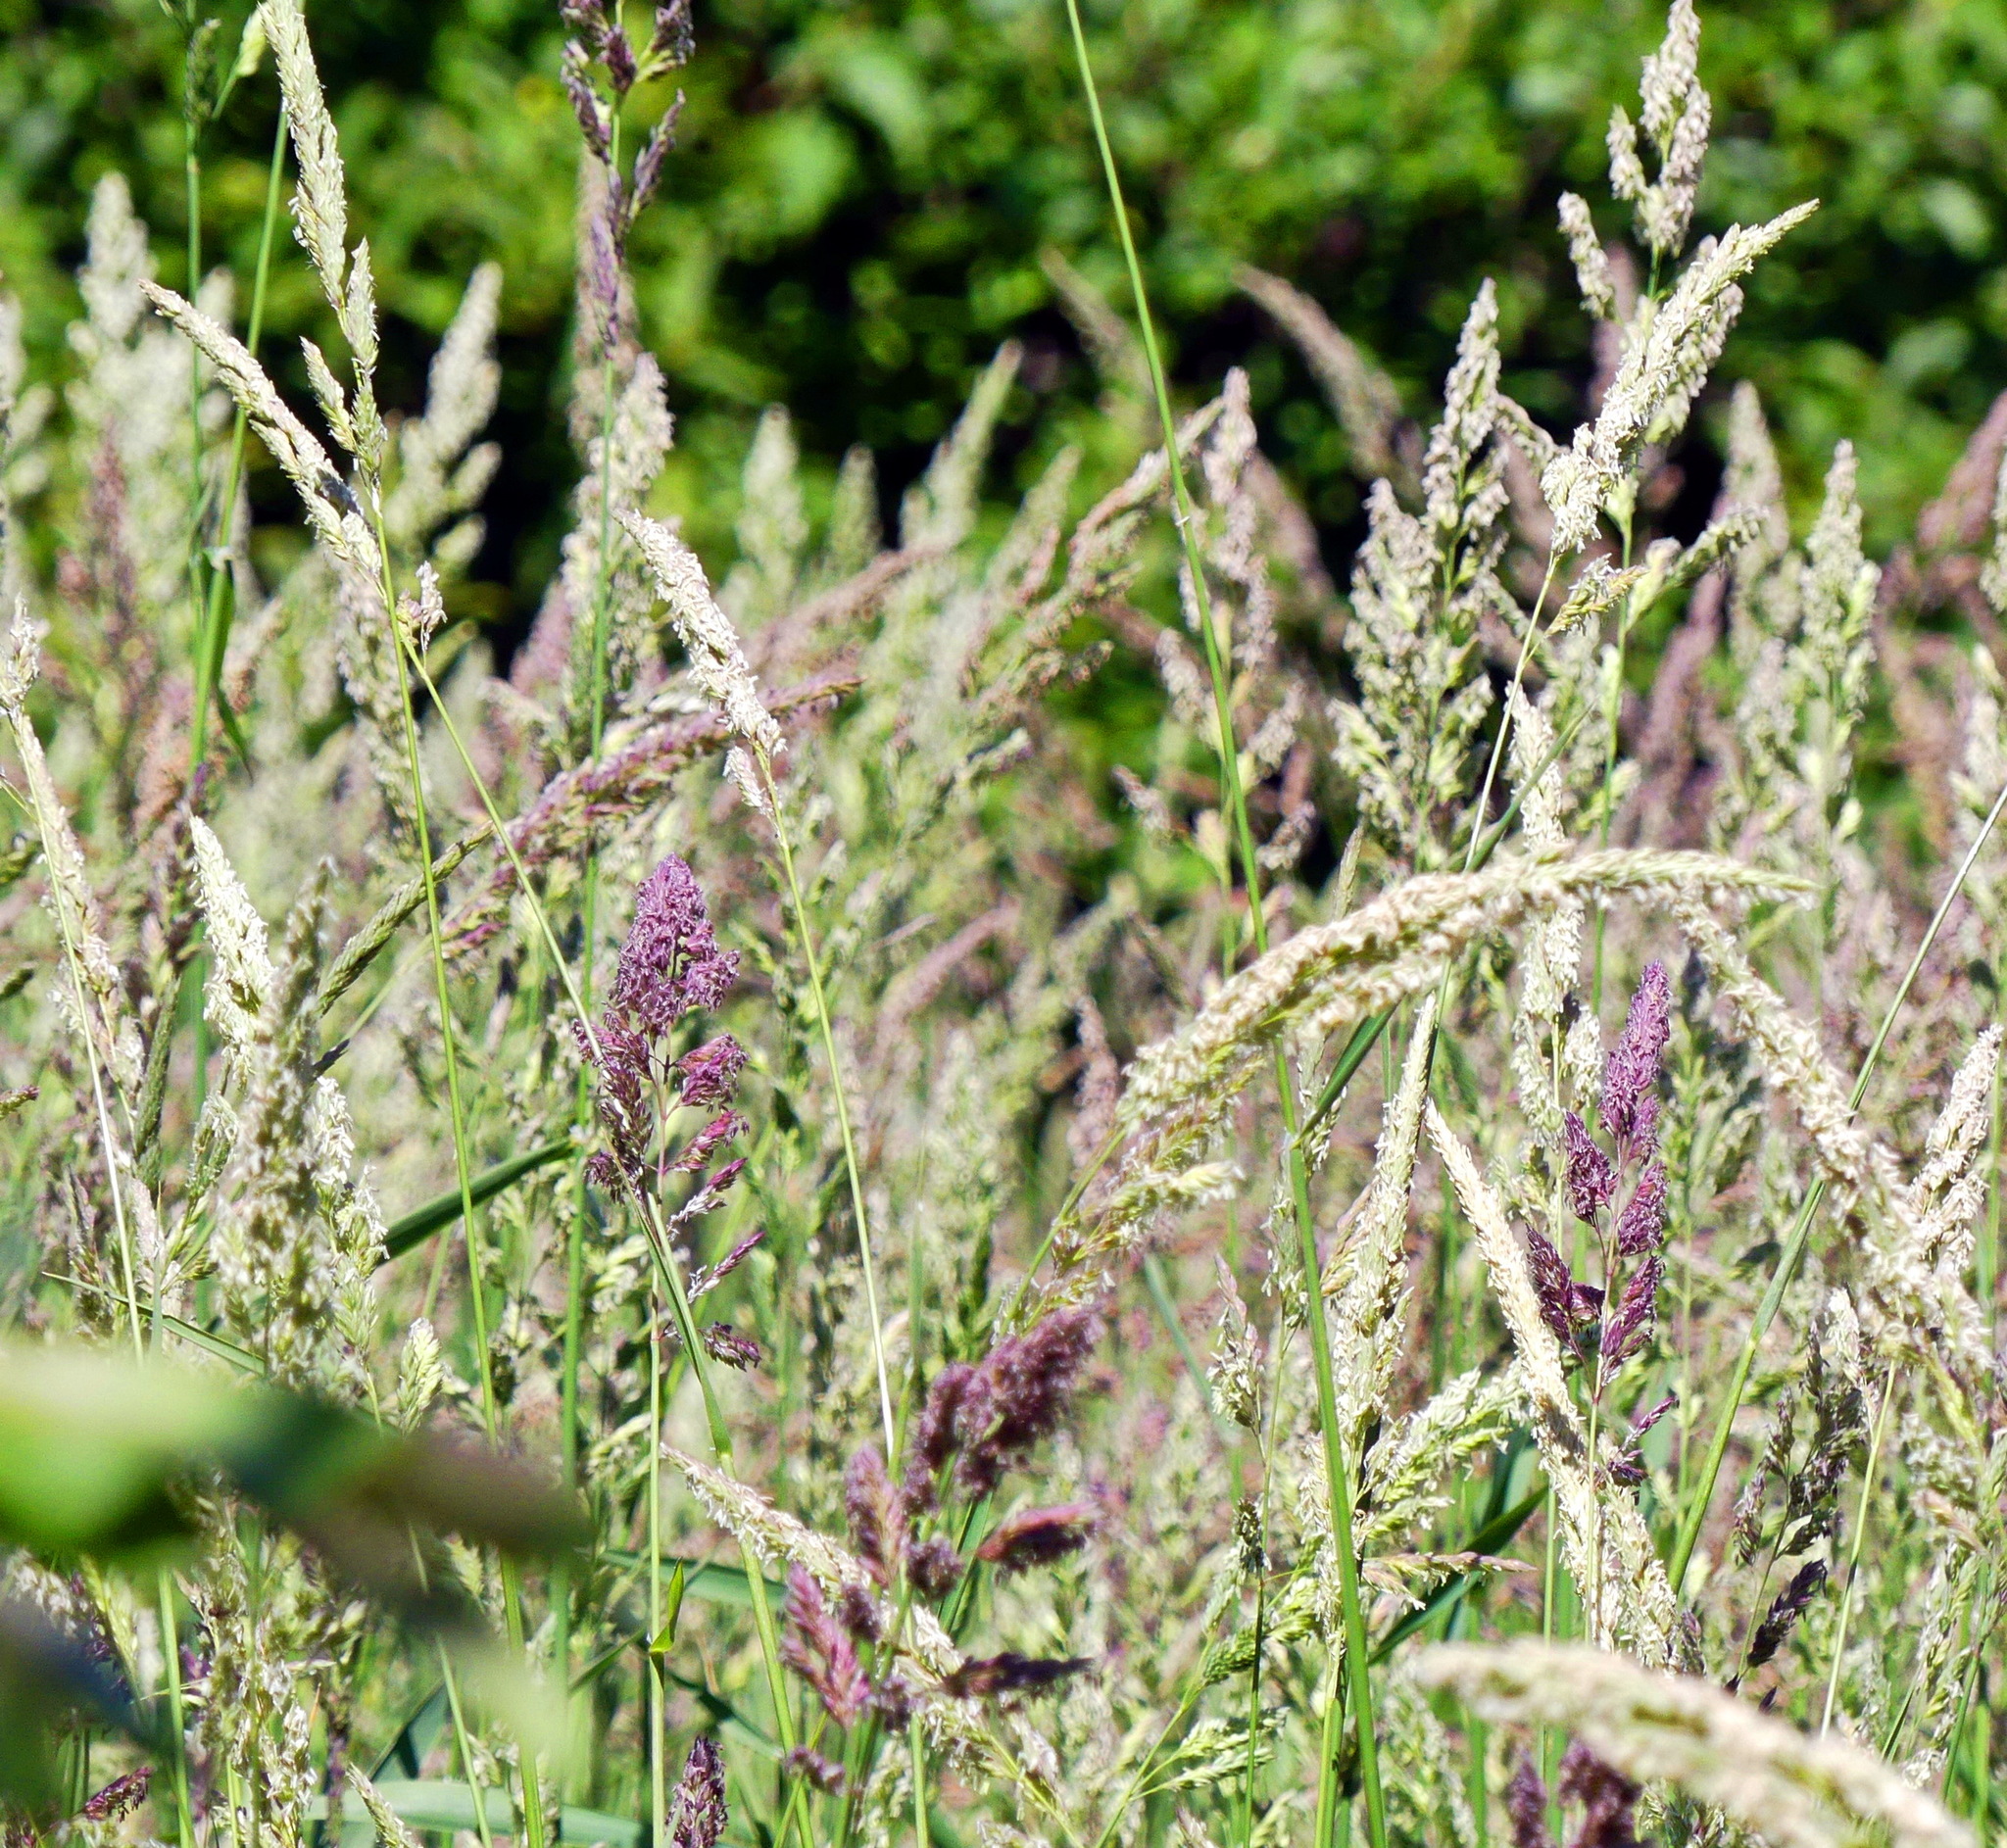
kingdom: Plantae
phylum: Tracheophyta
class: Liliopsida
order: Poales
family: Poaceae
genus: Phalaris
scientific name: Phalaris arundinacea
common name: Reed canary-grass
